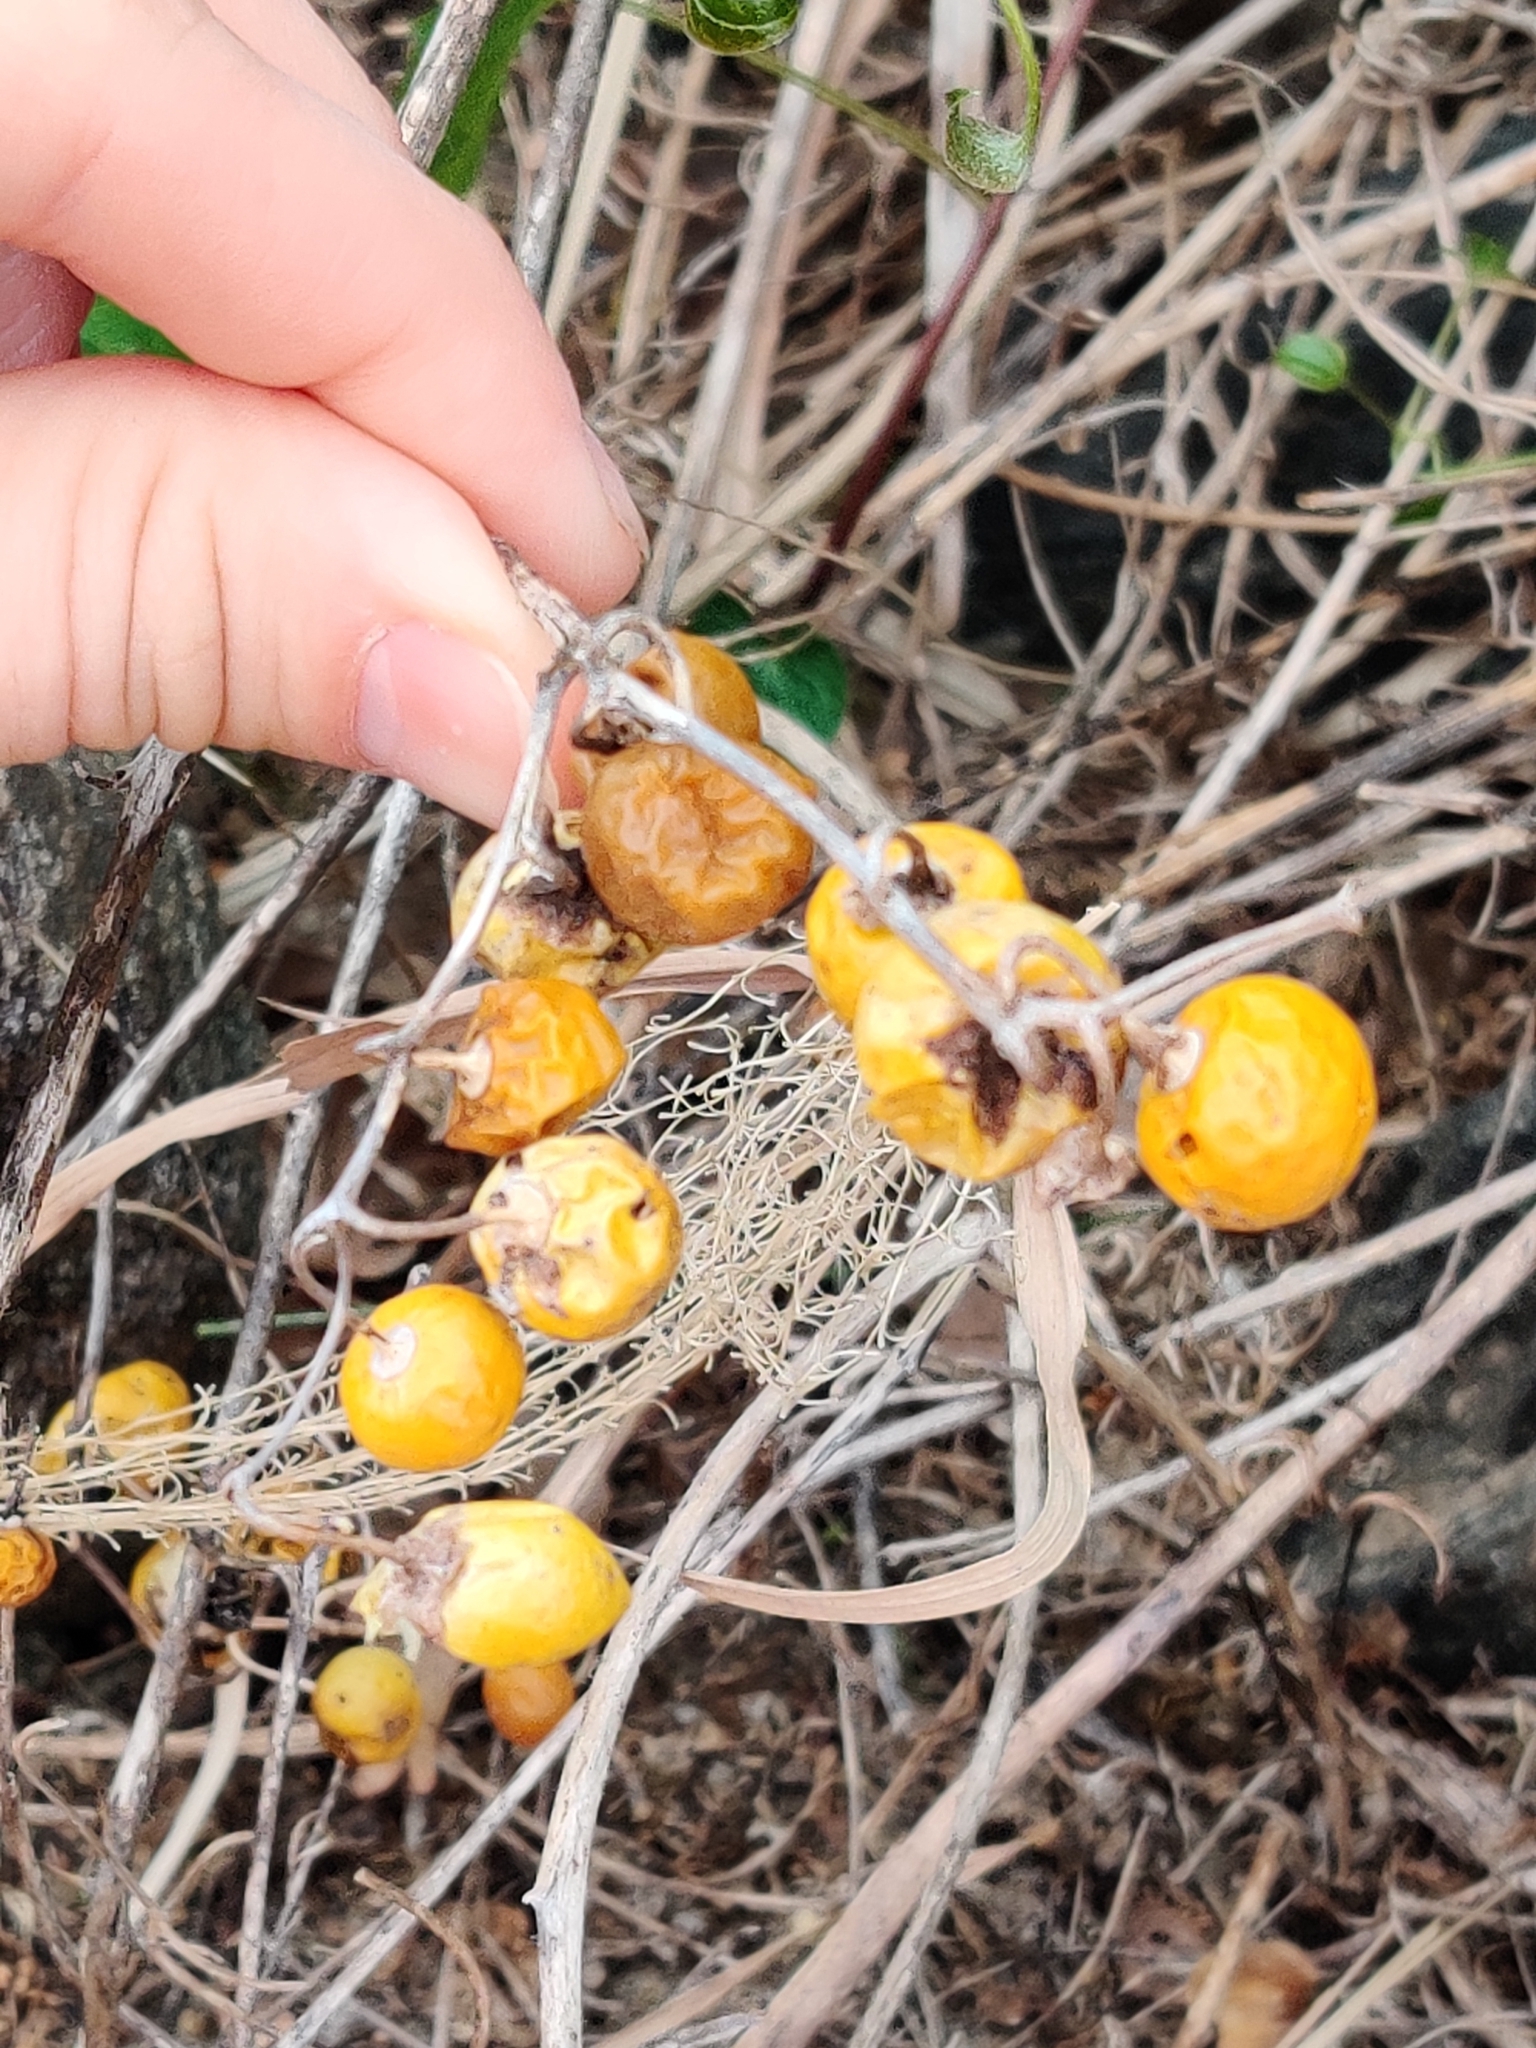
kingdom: Plantae
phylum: Tracheophyta
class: Magnoliopsida
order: Solanales
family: Solanaceae
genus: Solanum
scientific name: Solanum carolinense
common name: Horse-nettle
